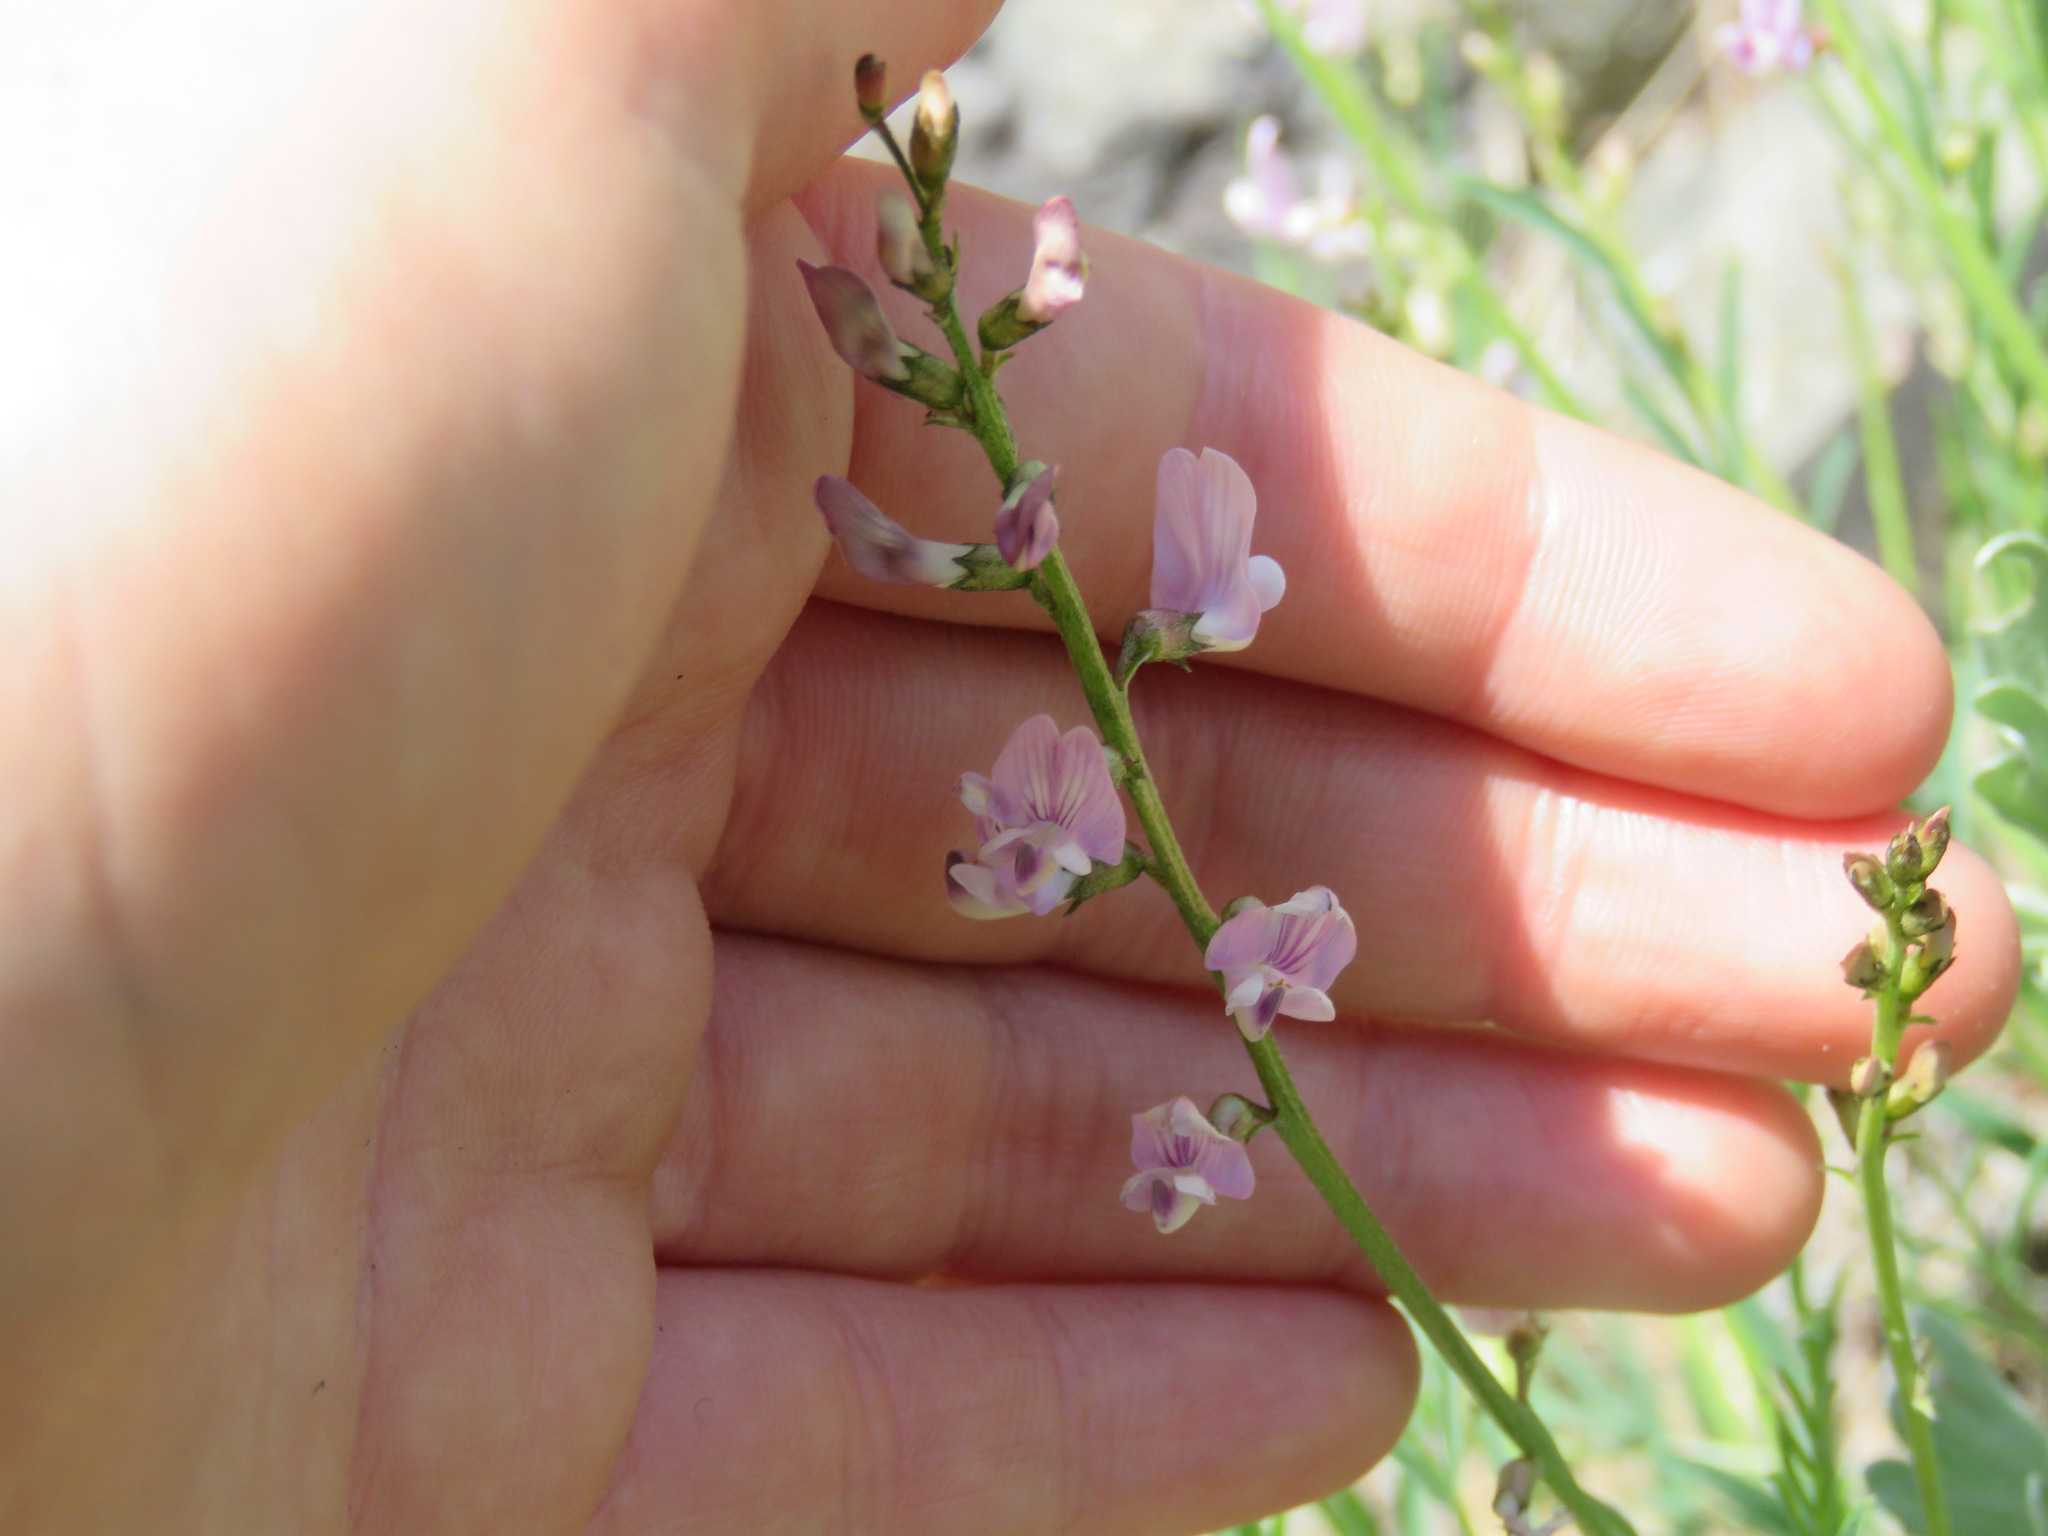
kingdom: Plantae
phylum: Tracheophyta
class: Magnoliopsida
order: Fabales
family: Fabaceae
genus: Astragalus
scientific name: Astragalus miser
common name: Timber milkvetch
